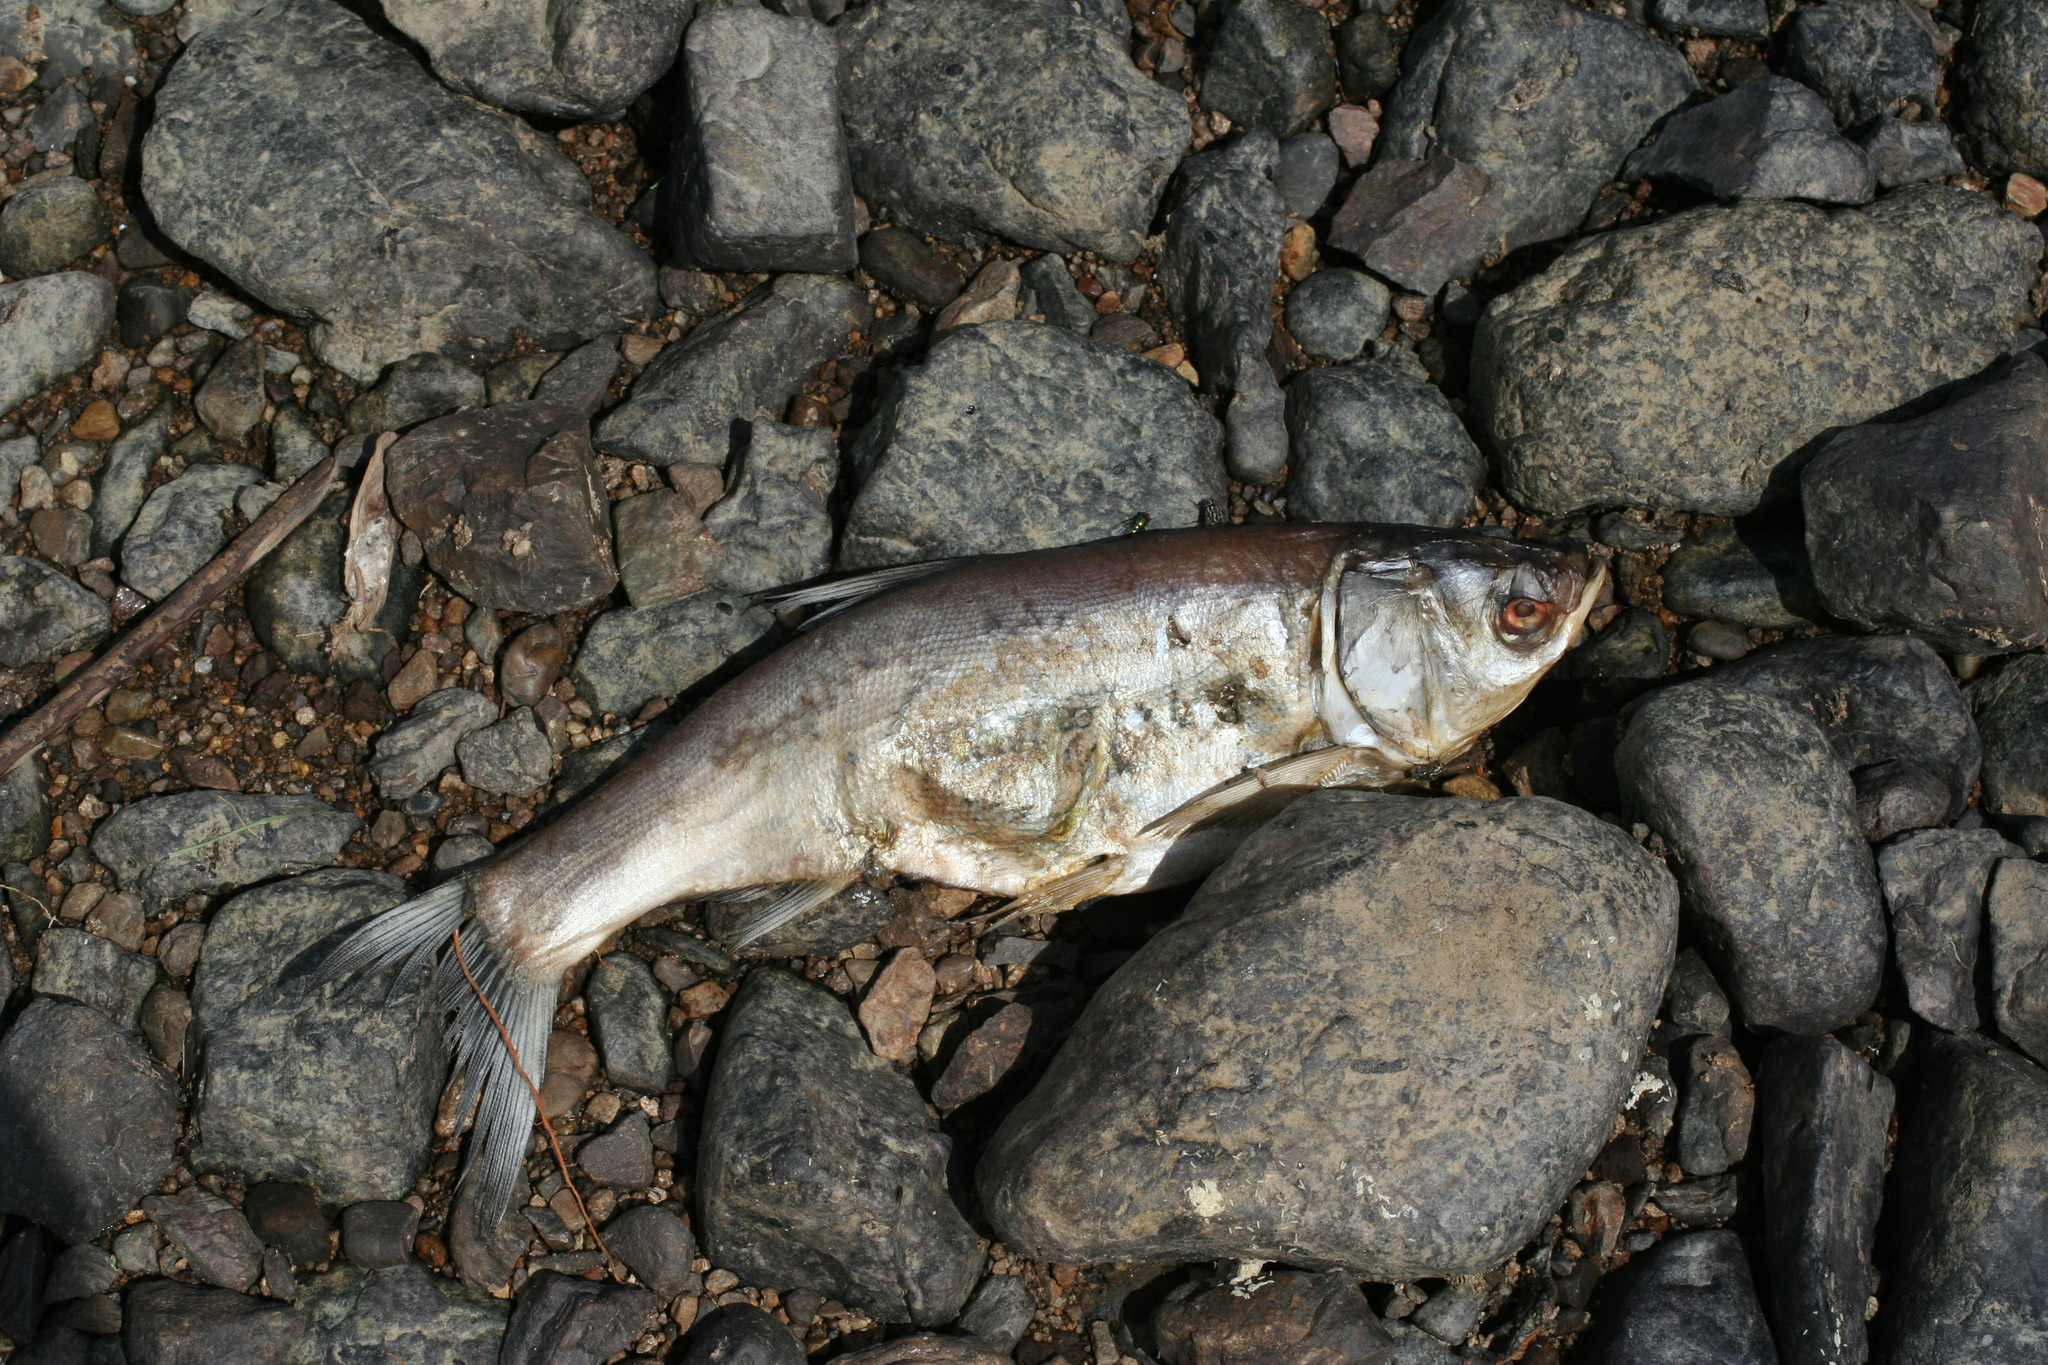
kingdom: Animalia
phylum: Chordata
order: Cypriniformes
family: Cyprinidae
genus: Hypophthalmichthys
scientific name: Hypophthalmichthys molitrix
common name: Silver carp
